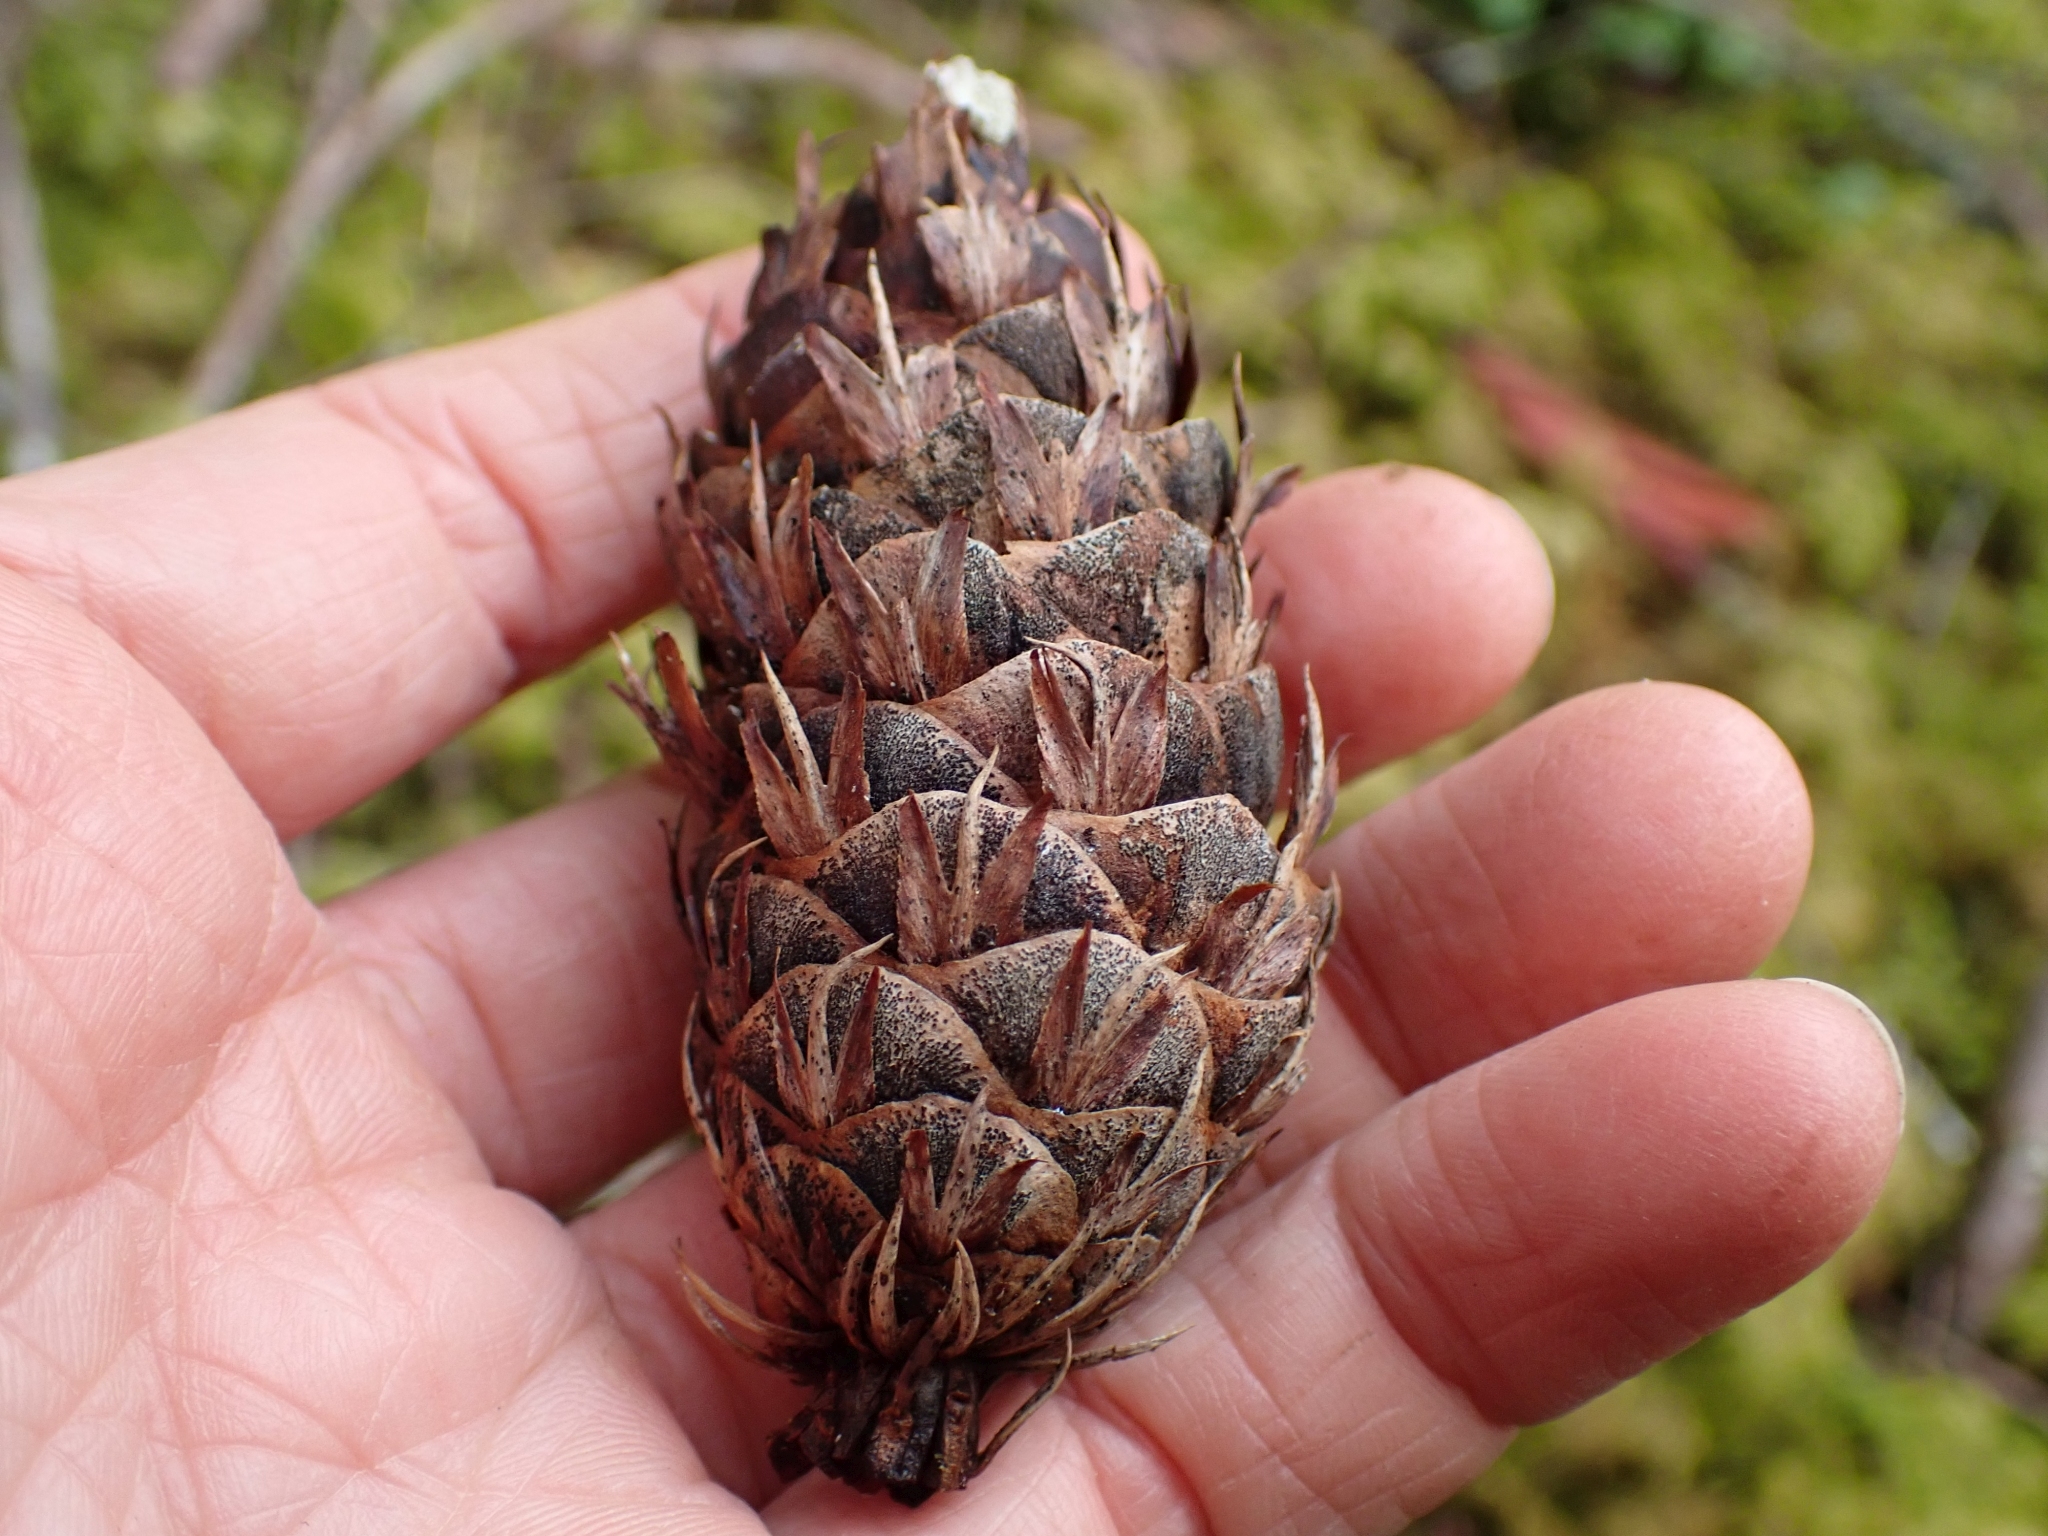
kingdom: Plantae
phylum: Tracheophyta
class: Pinopsida
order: Pinales
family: Pinaceae
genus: Pseudotsuga
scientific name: Pseudotsuga menziesii
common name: Douglas fir
